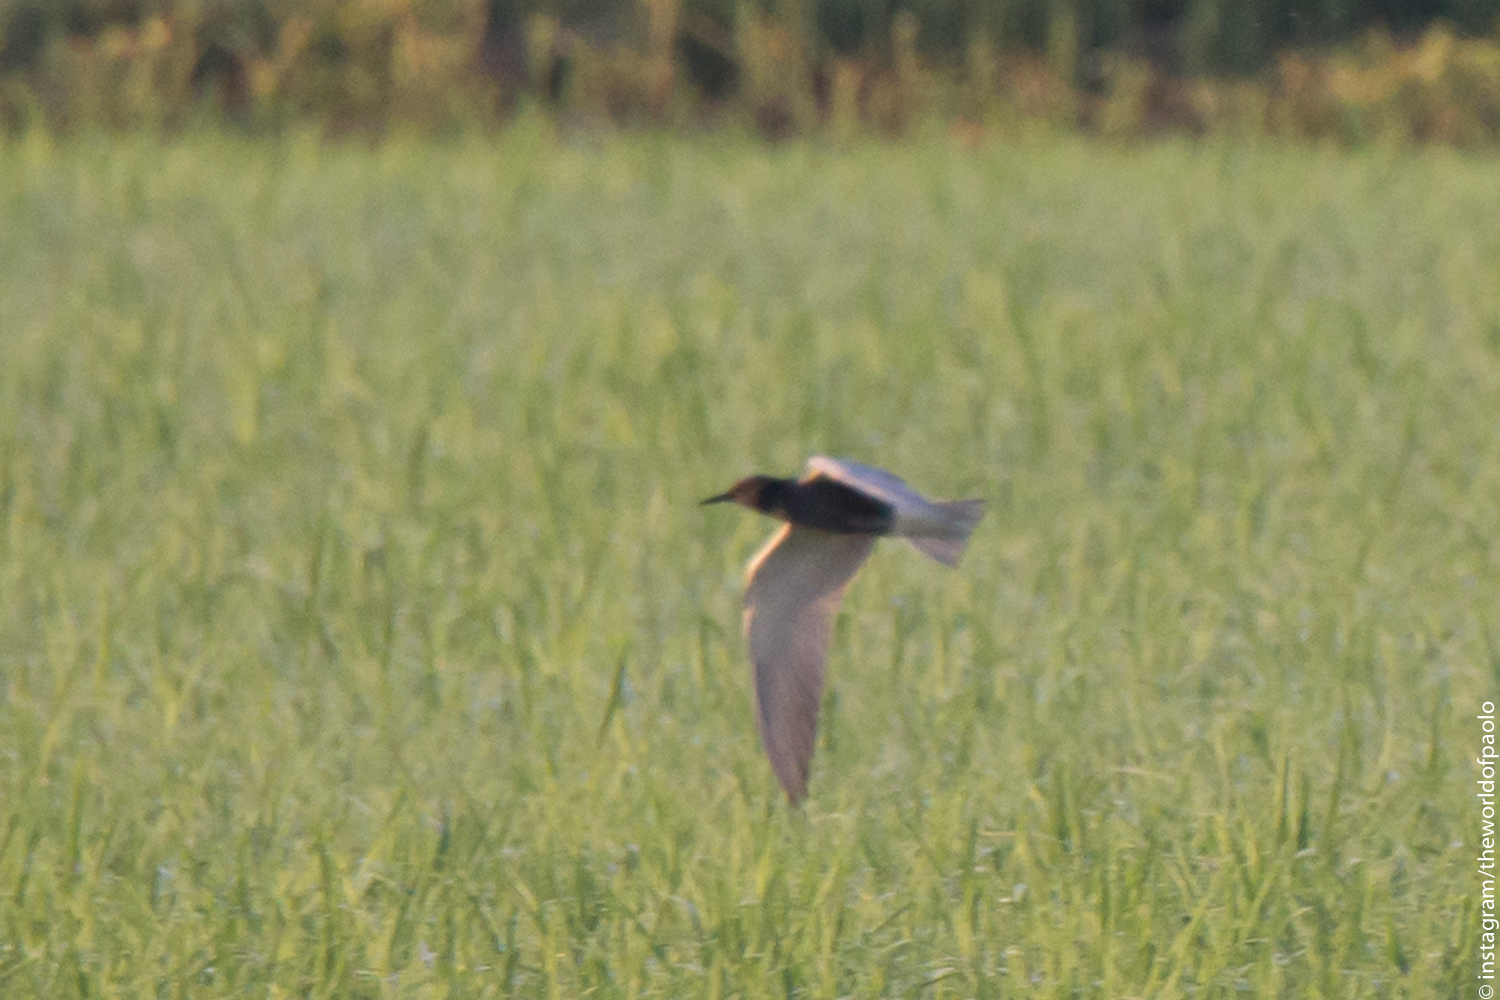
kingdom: Animalia
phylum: Chordata
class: Aves
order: Charadriiformes
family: Laridae
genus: Chlidonias
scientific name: Chlidonias niger
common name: Black tern
